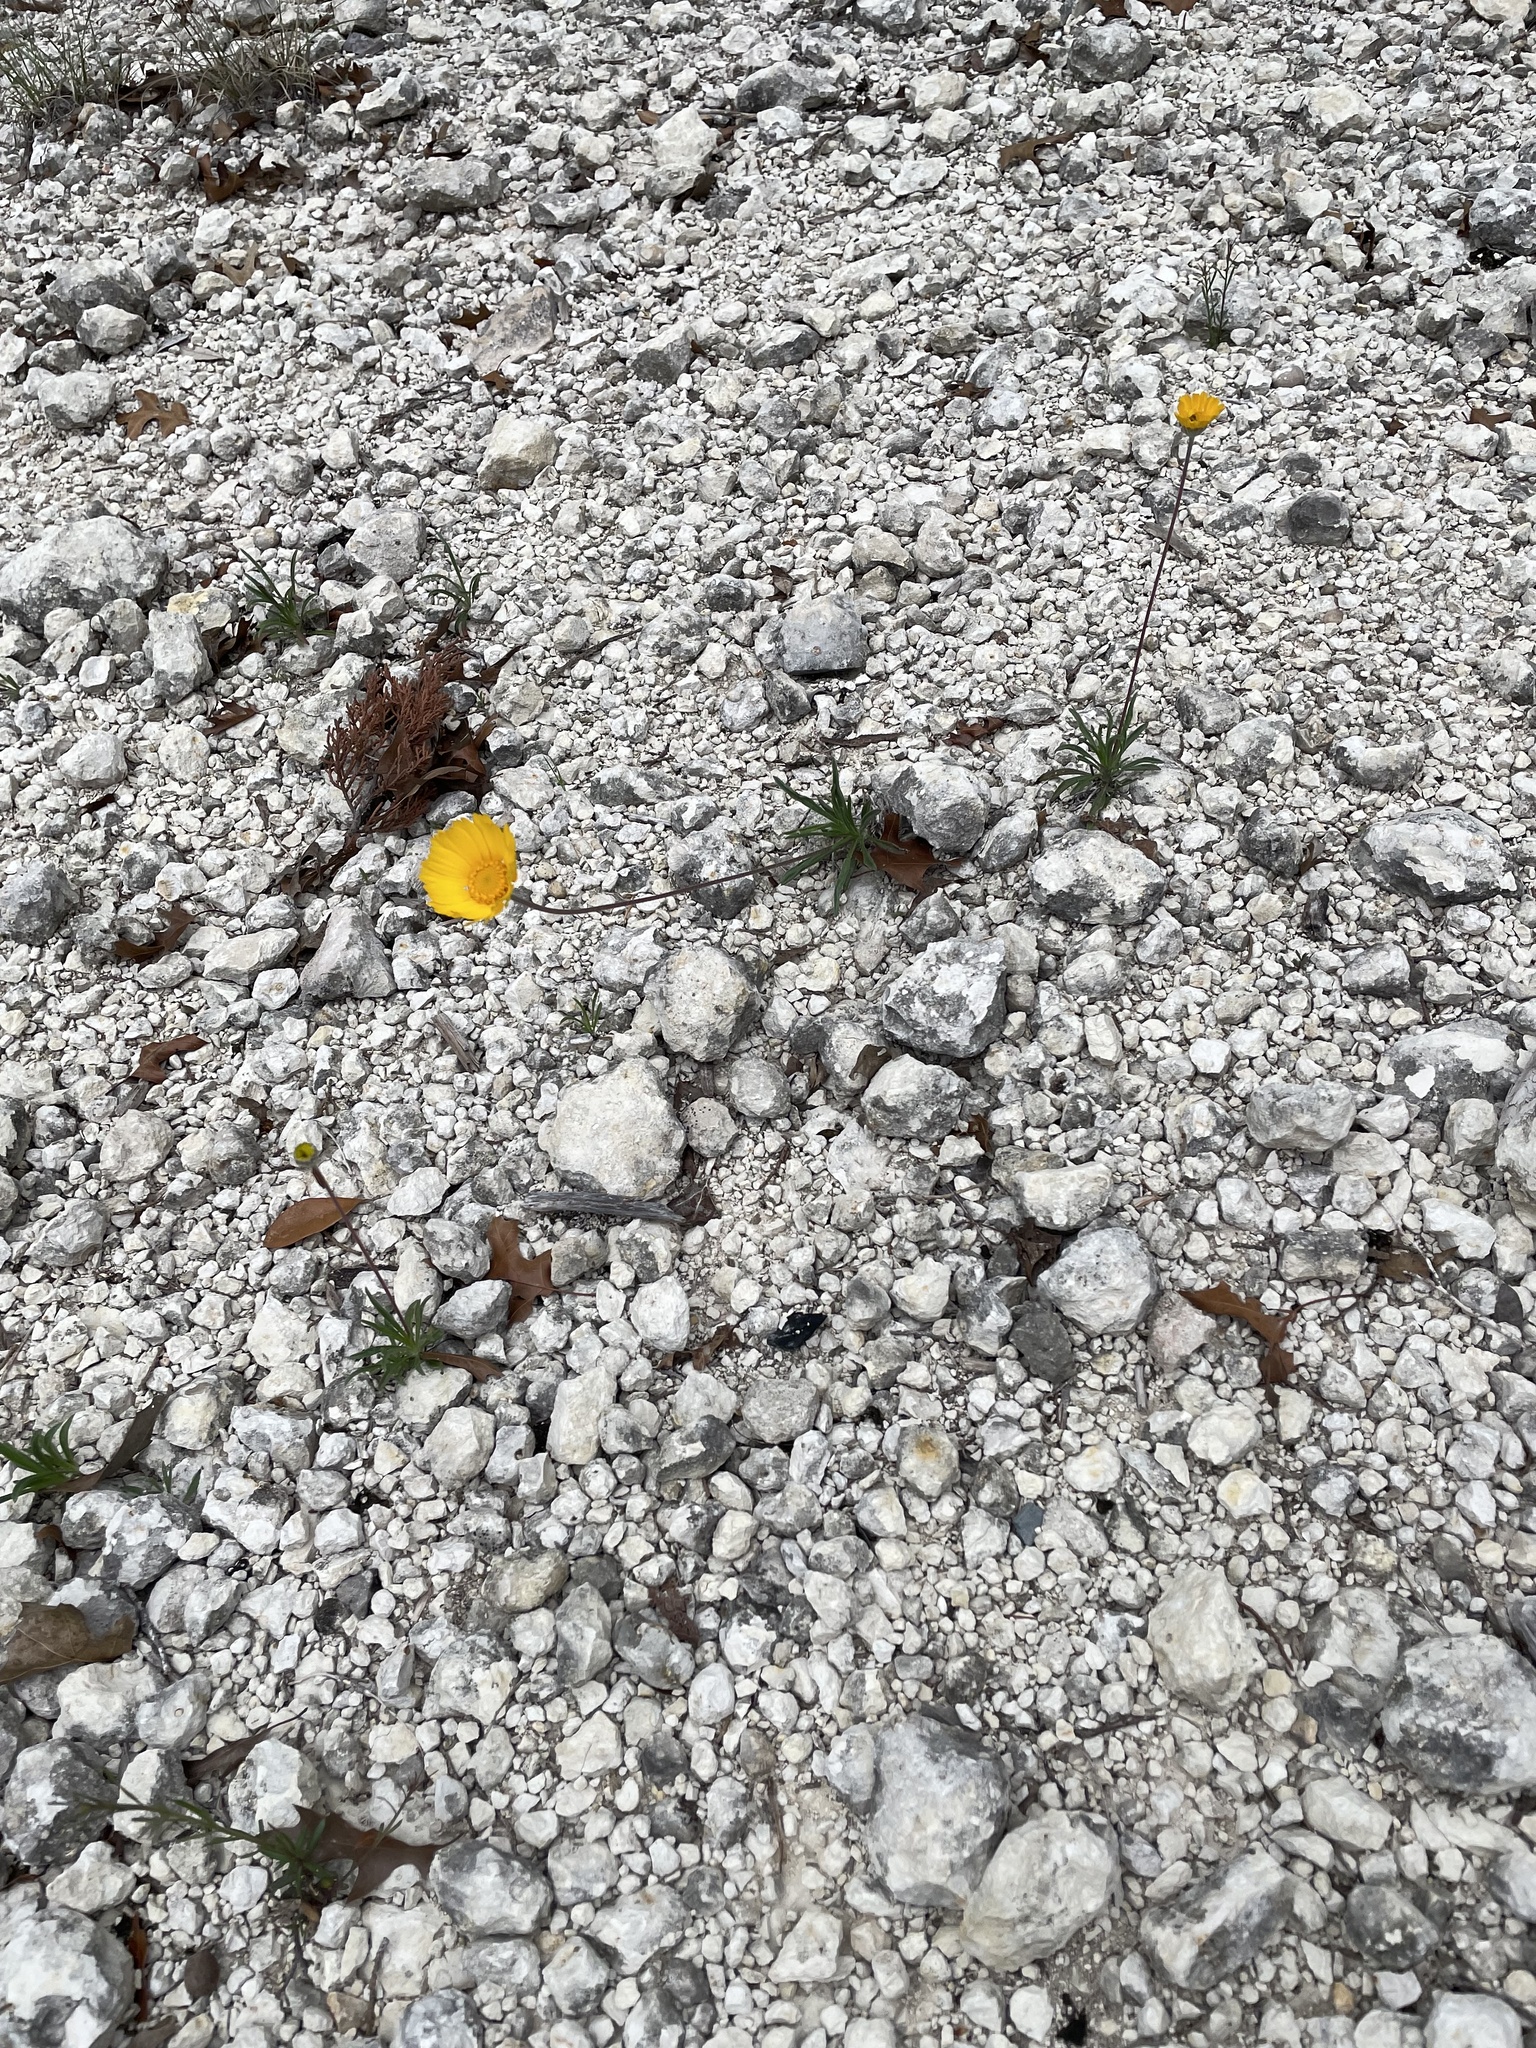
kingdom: Plantae
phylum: Tracheophyta
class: Magnoliopsida
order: Asterales
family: Asteraceae
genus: Tetraneuris
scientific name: Tetraneuris scaposa
